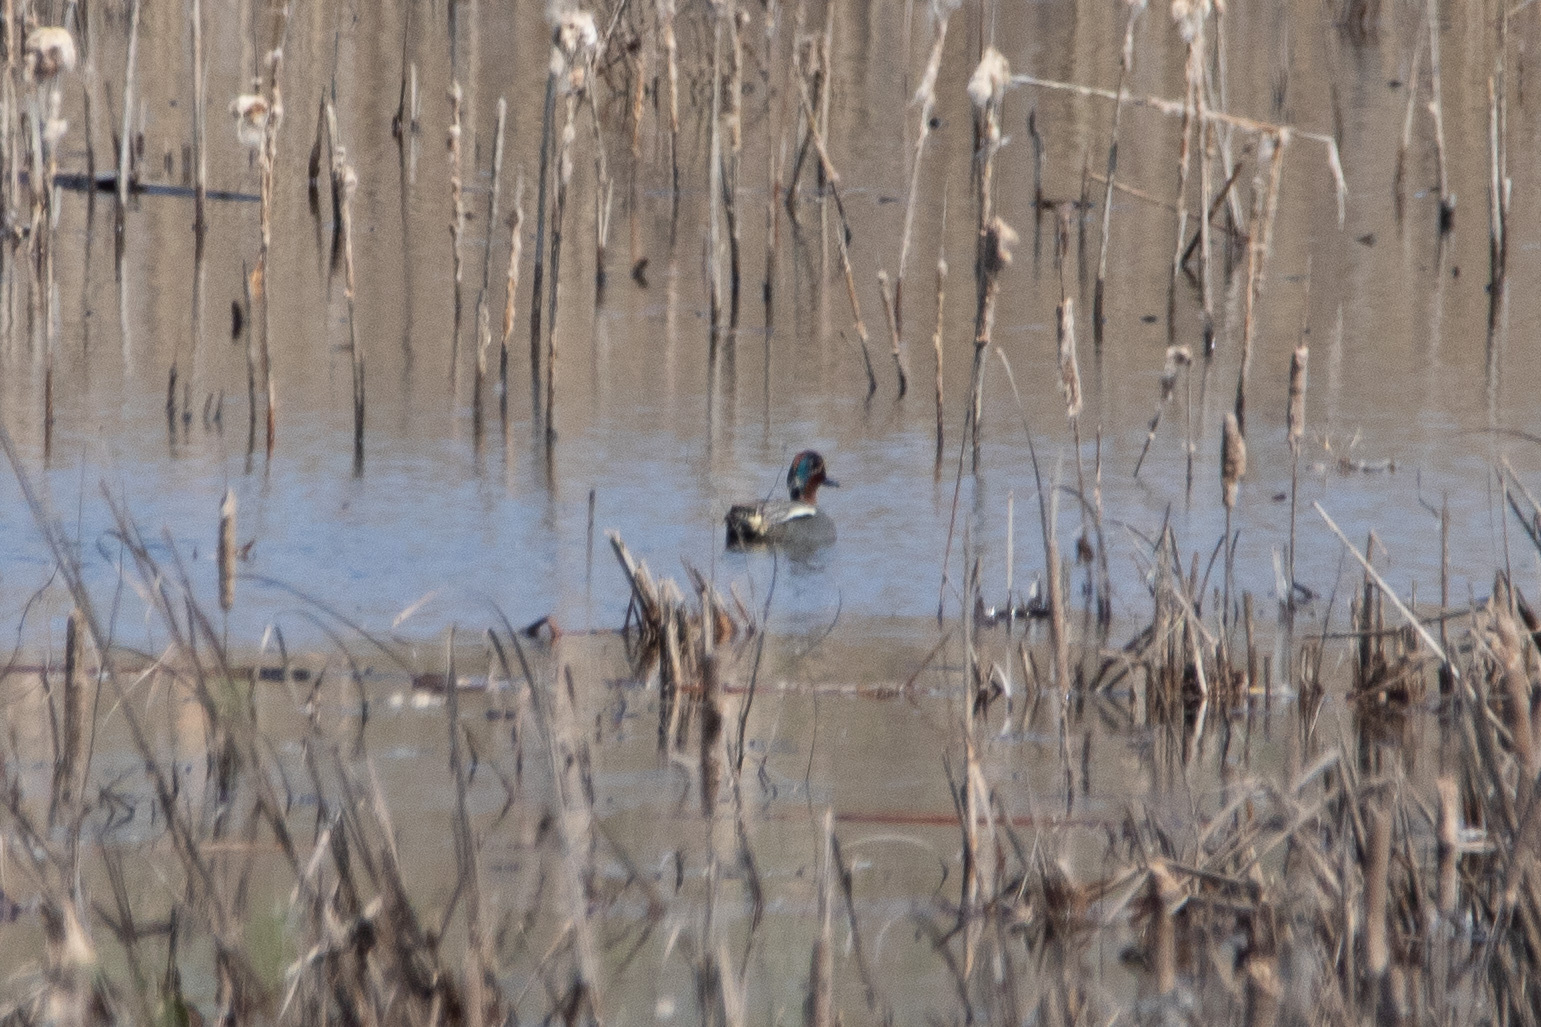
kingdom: Animalia
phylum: Chordata
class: Aves
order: Anseriformes
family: Anatidae
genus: Anas
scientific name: Anas crecca
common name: Eurasian teal
